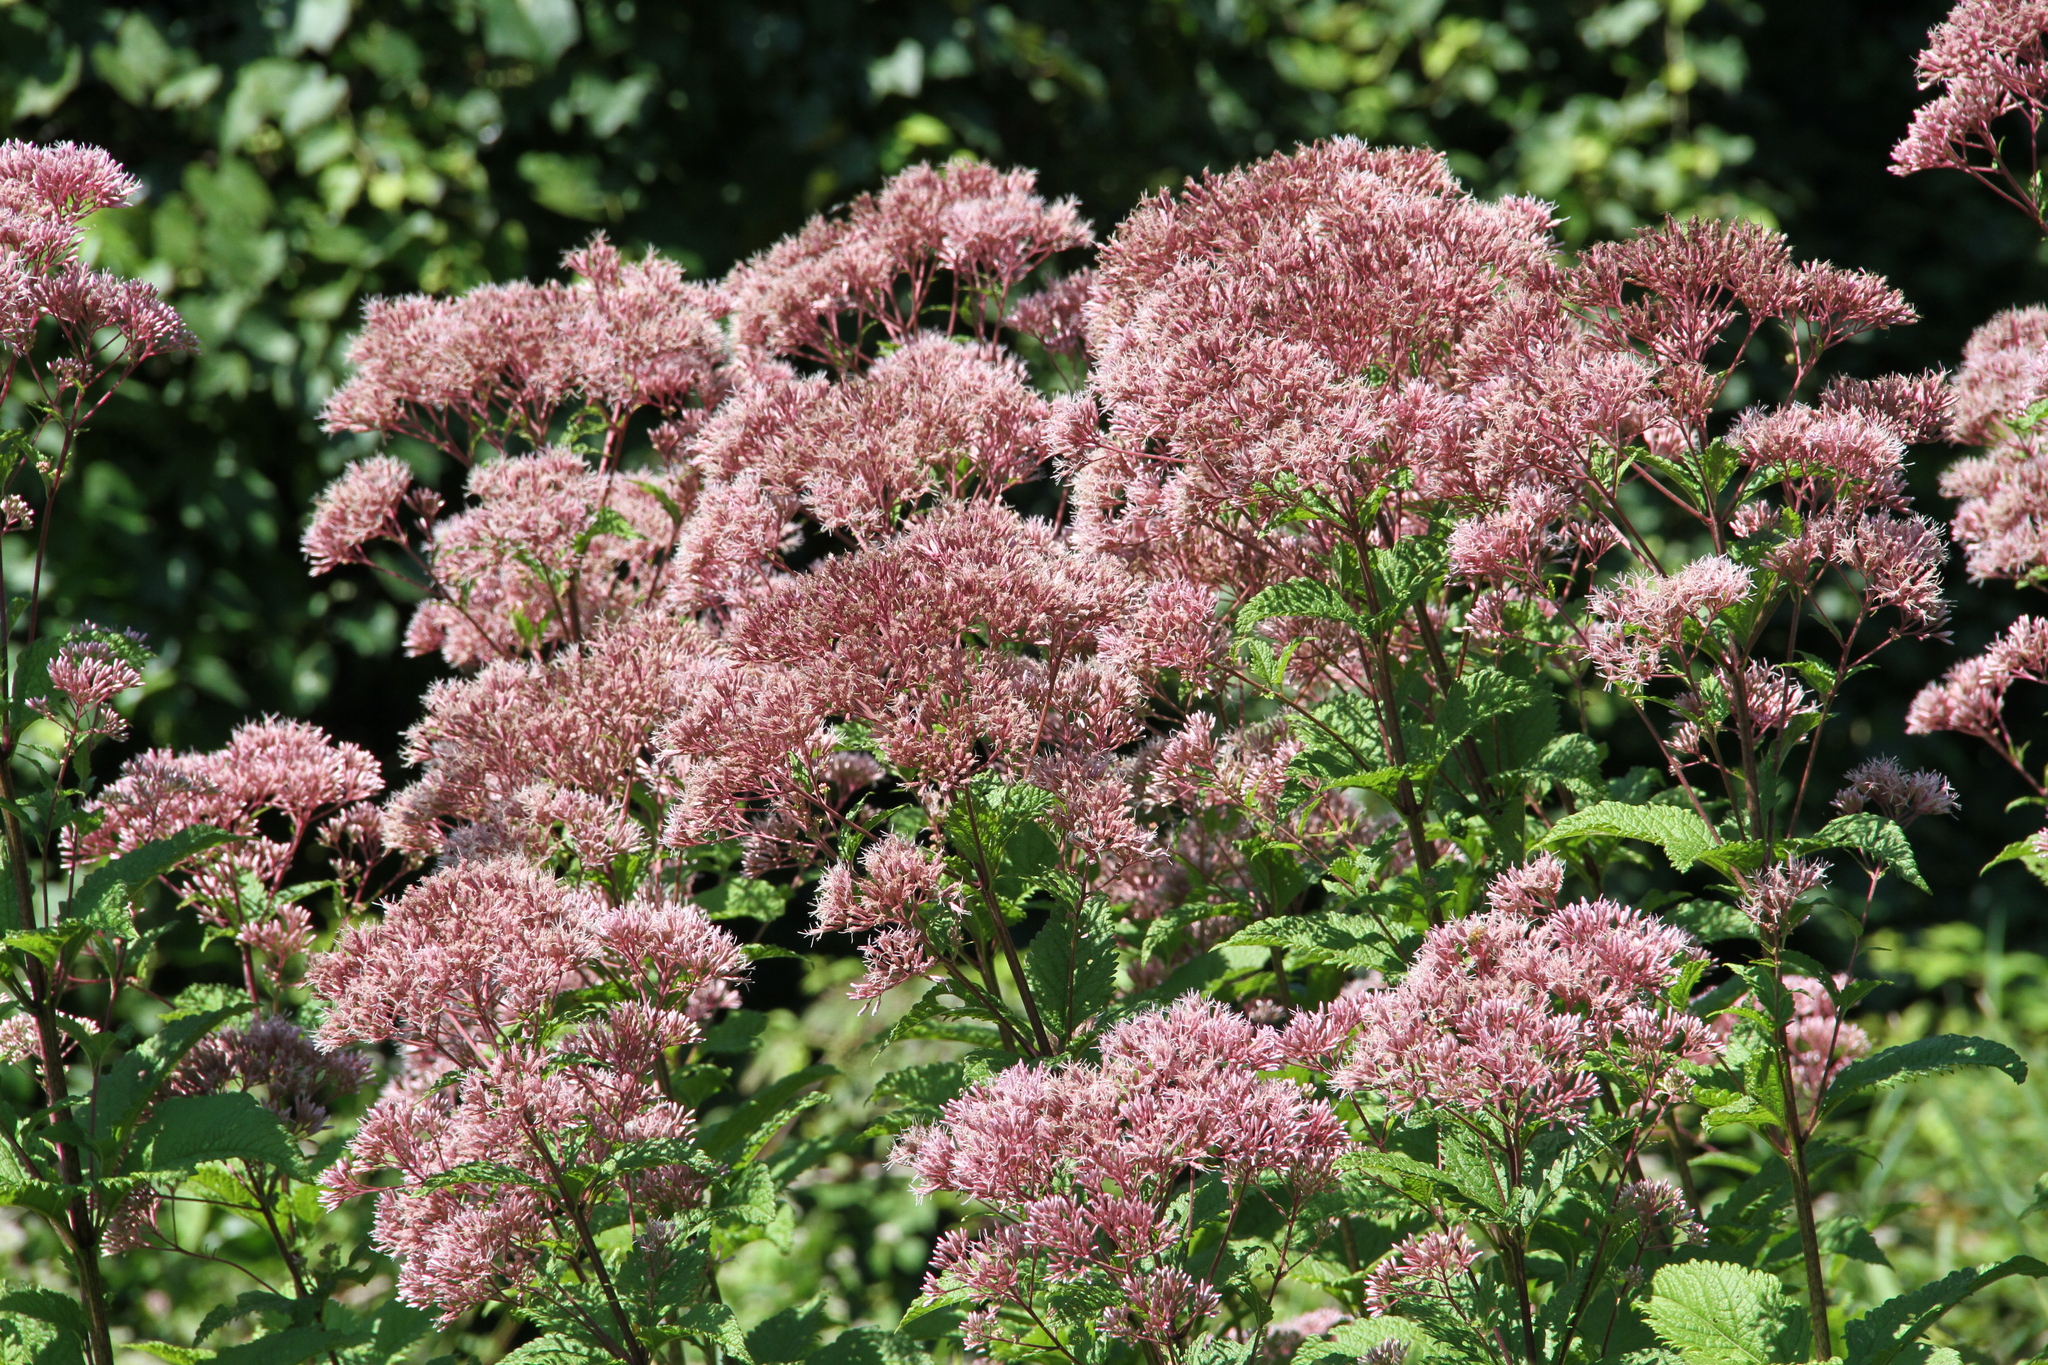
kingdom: Plantae
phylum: Tracheophyta
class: Magnoliopsida
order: Asterales
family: Asteraceae
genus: Eutrochium
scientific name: Eutrochium dubium
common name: Coastal plain joe pye weed
